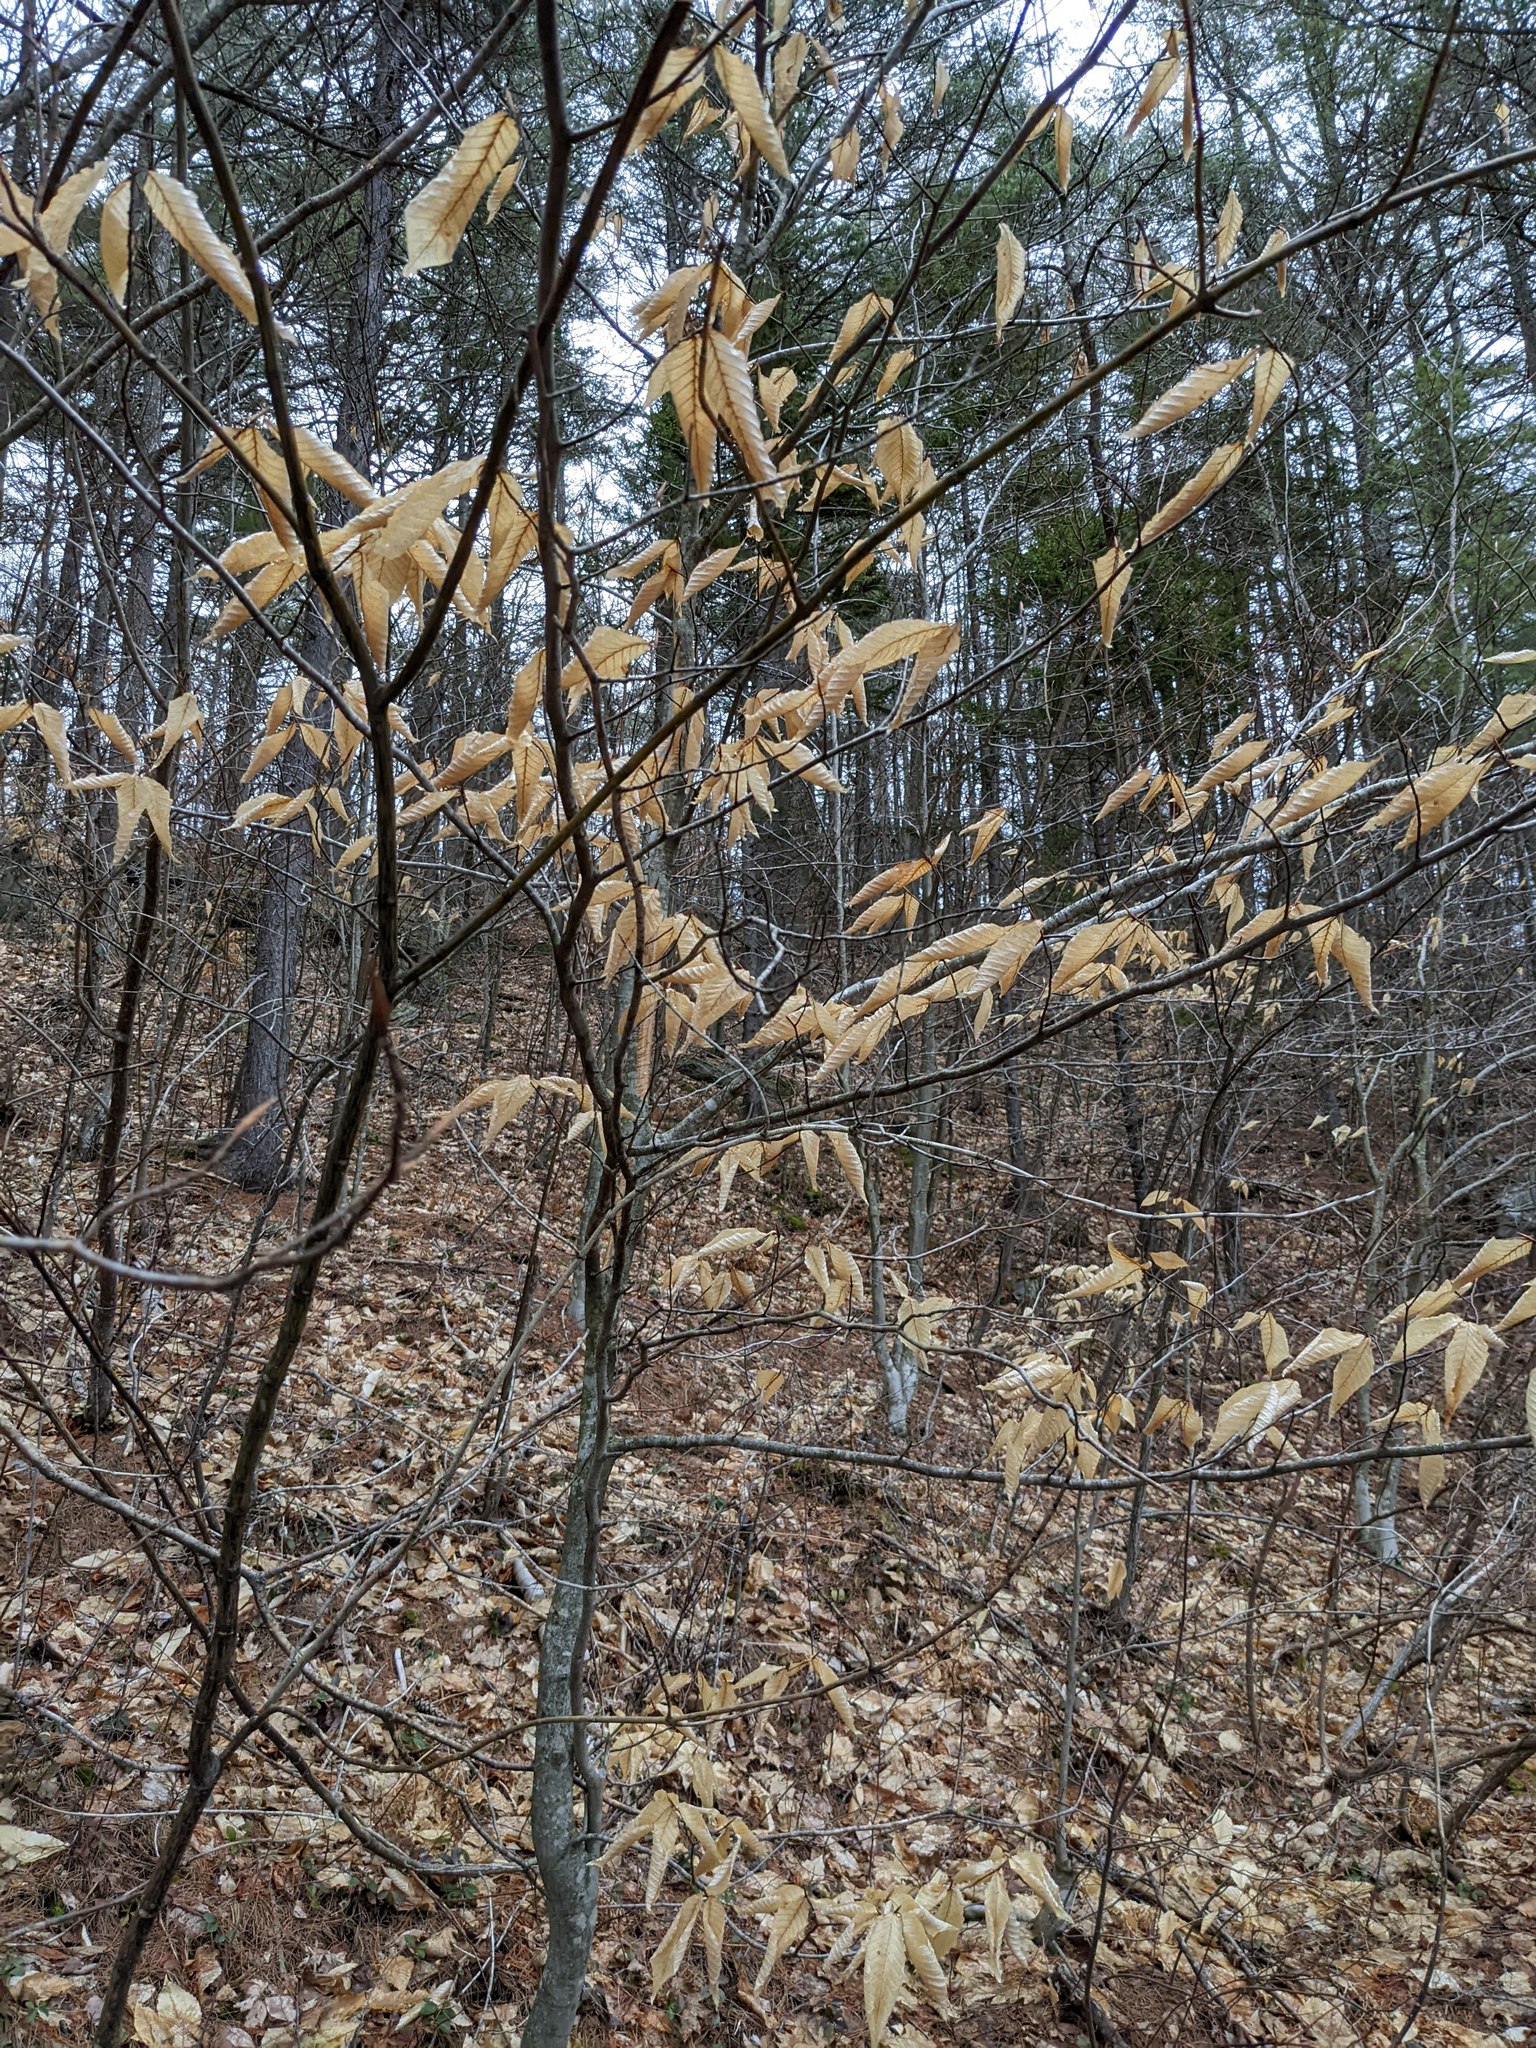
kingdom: Plantae
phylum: Tracheophyta
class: Magnoliopsida
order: Fagales
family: Fagaceae
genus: Fagus
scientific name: Fagus grandifolia
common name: American beech
